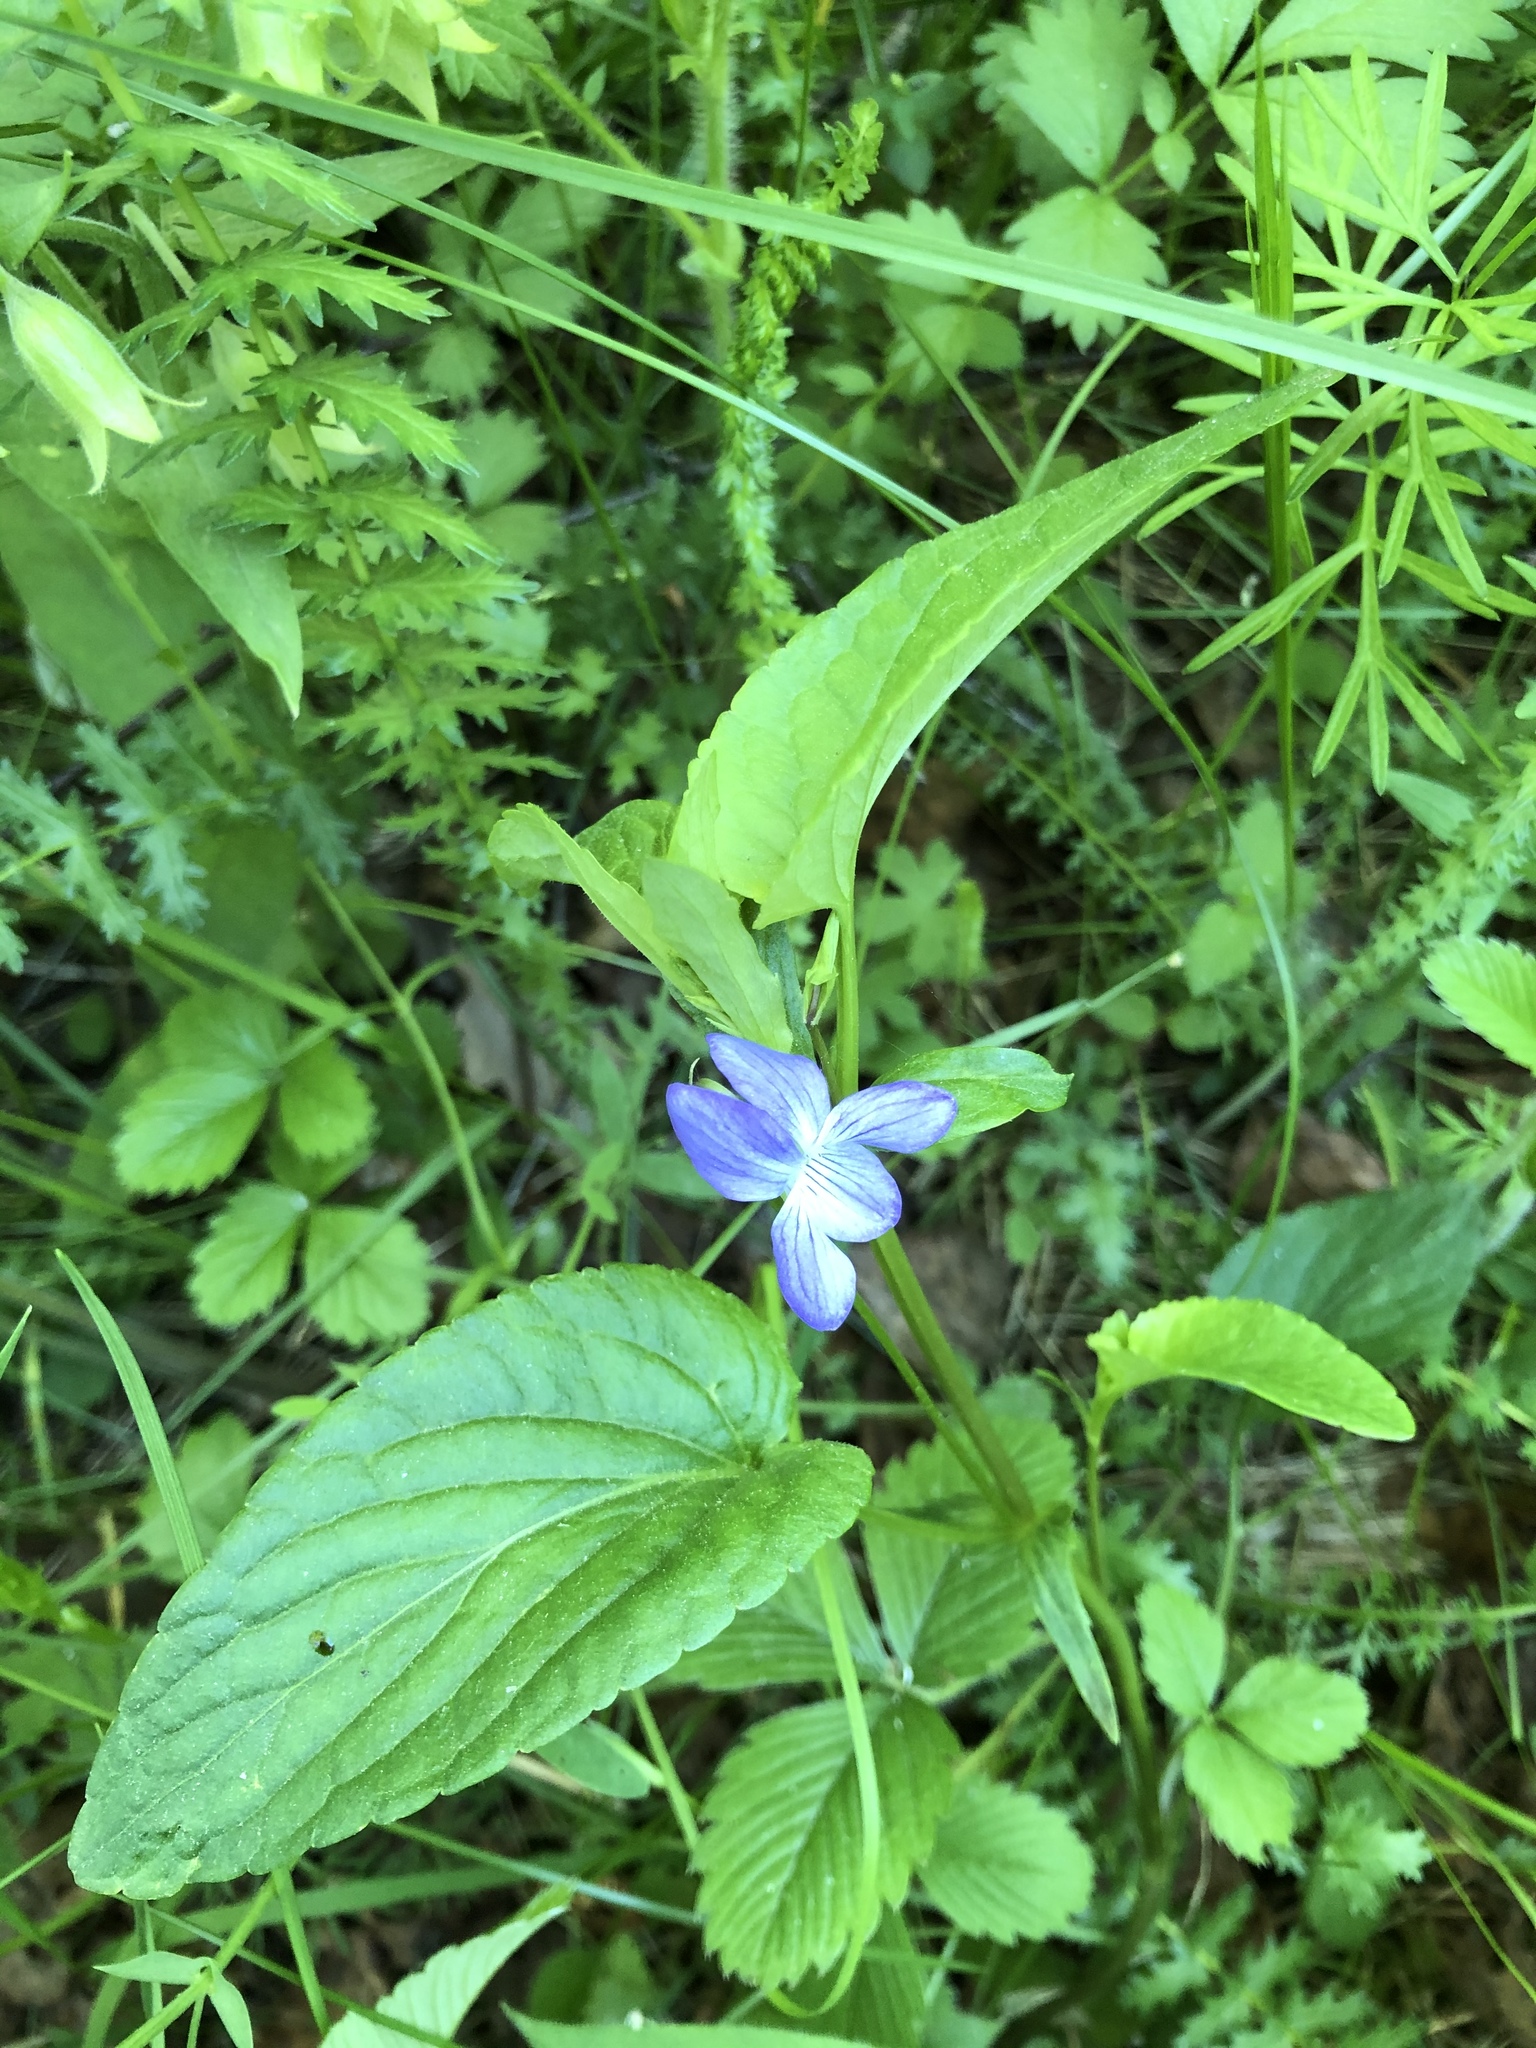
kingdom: Plantae
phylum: Tracheophyta
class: Magnoliopsida
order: Malpighiales
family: Violaceae
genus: Viola
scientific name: Viola
